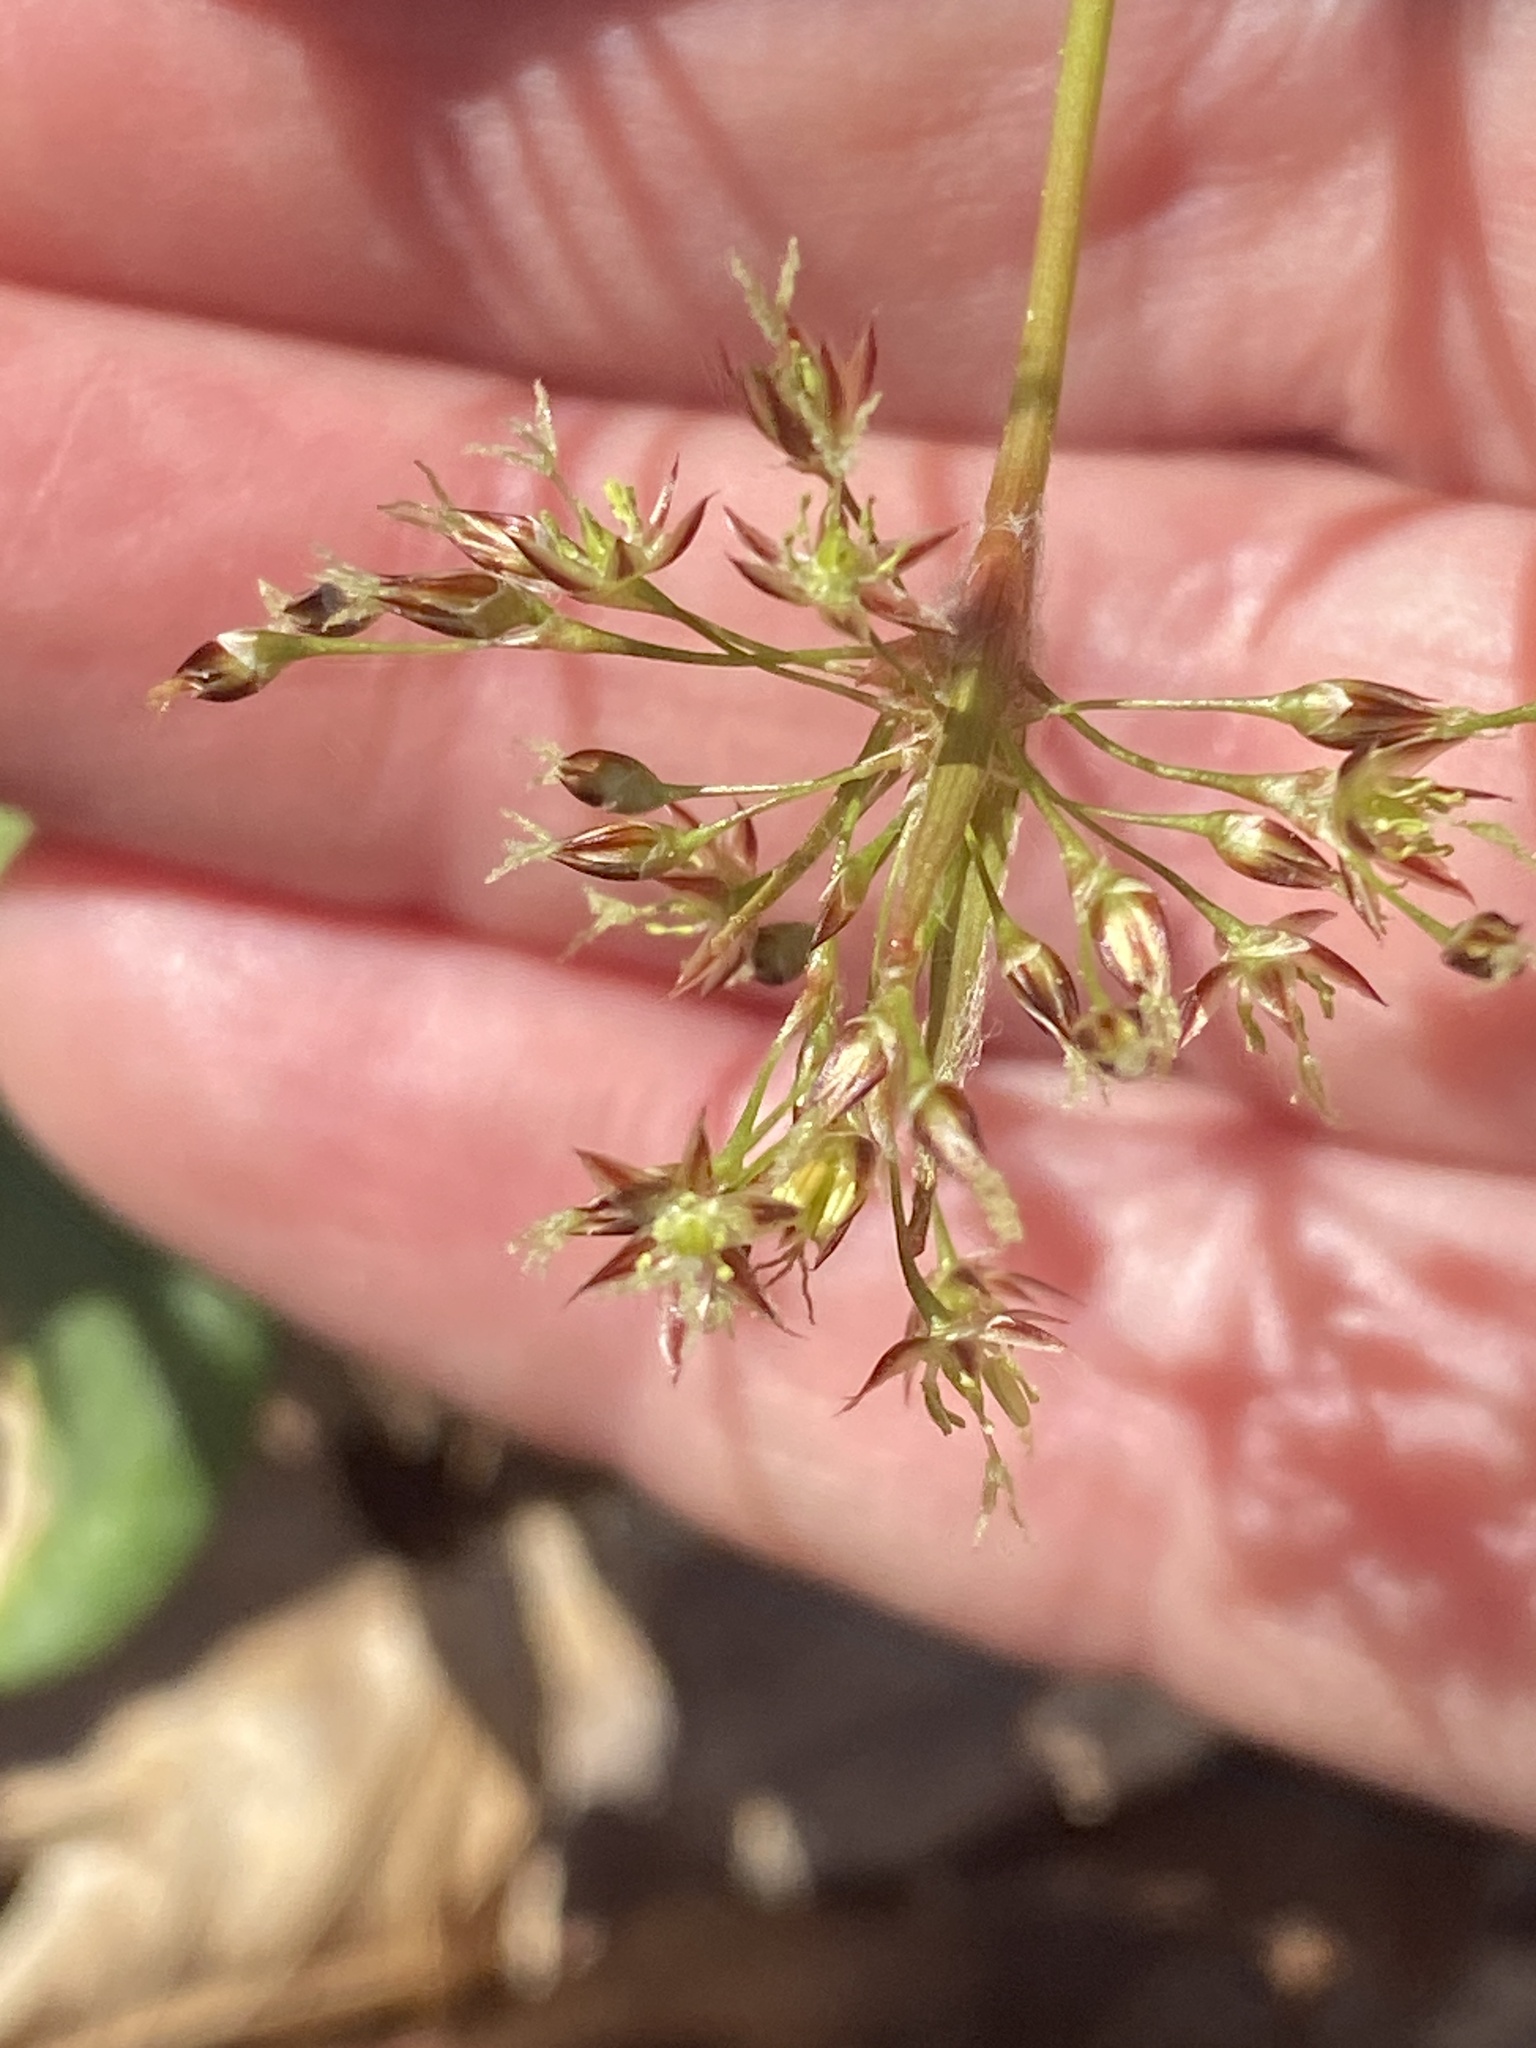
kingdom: Plantae
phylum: Tracheophyta
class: Liliopsida
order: Poales
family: Juncaceae
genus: Luzula
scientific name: Luzula acuminata
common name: Hairy woodrush
